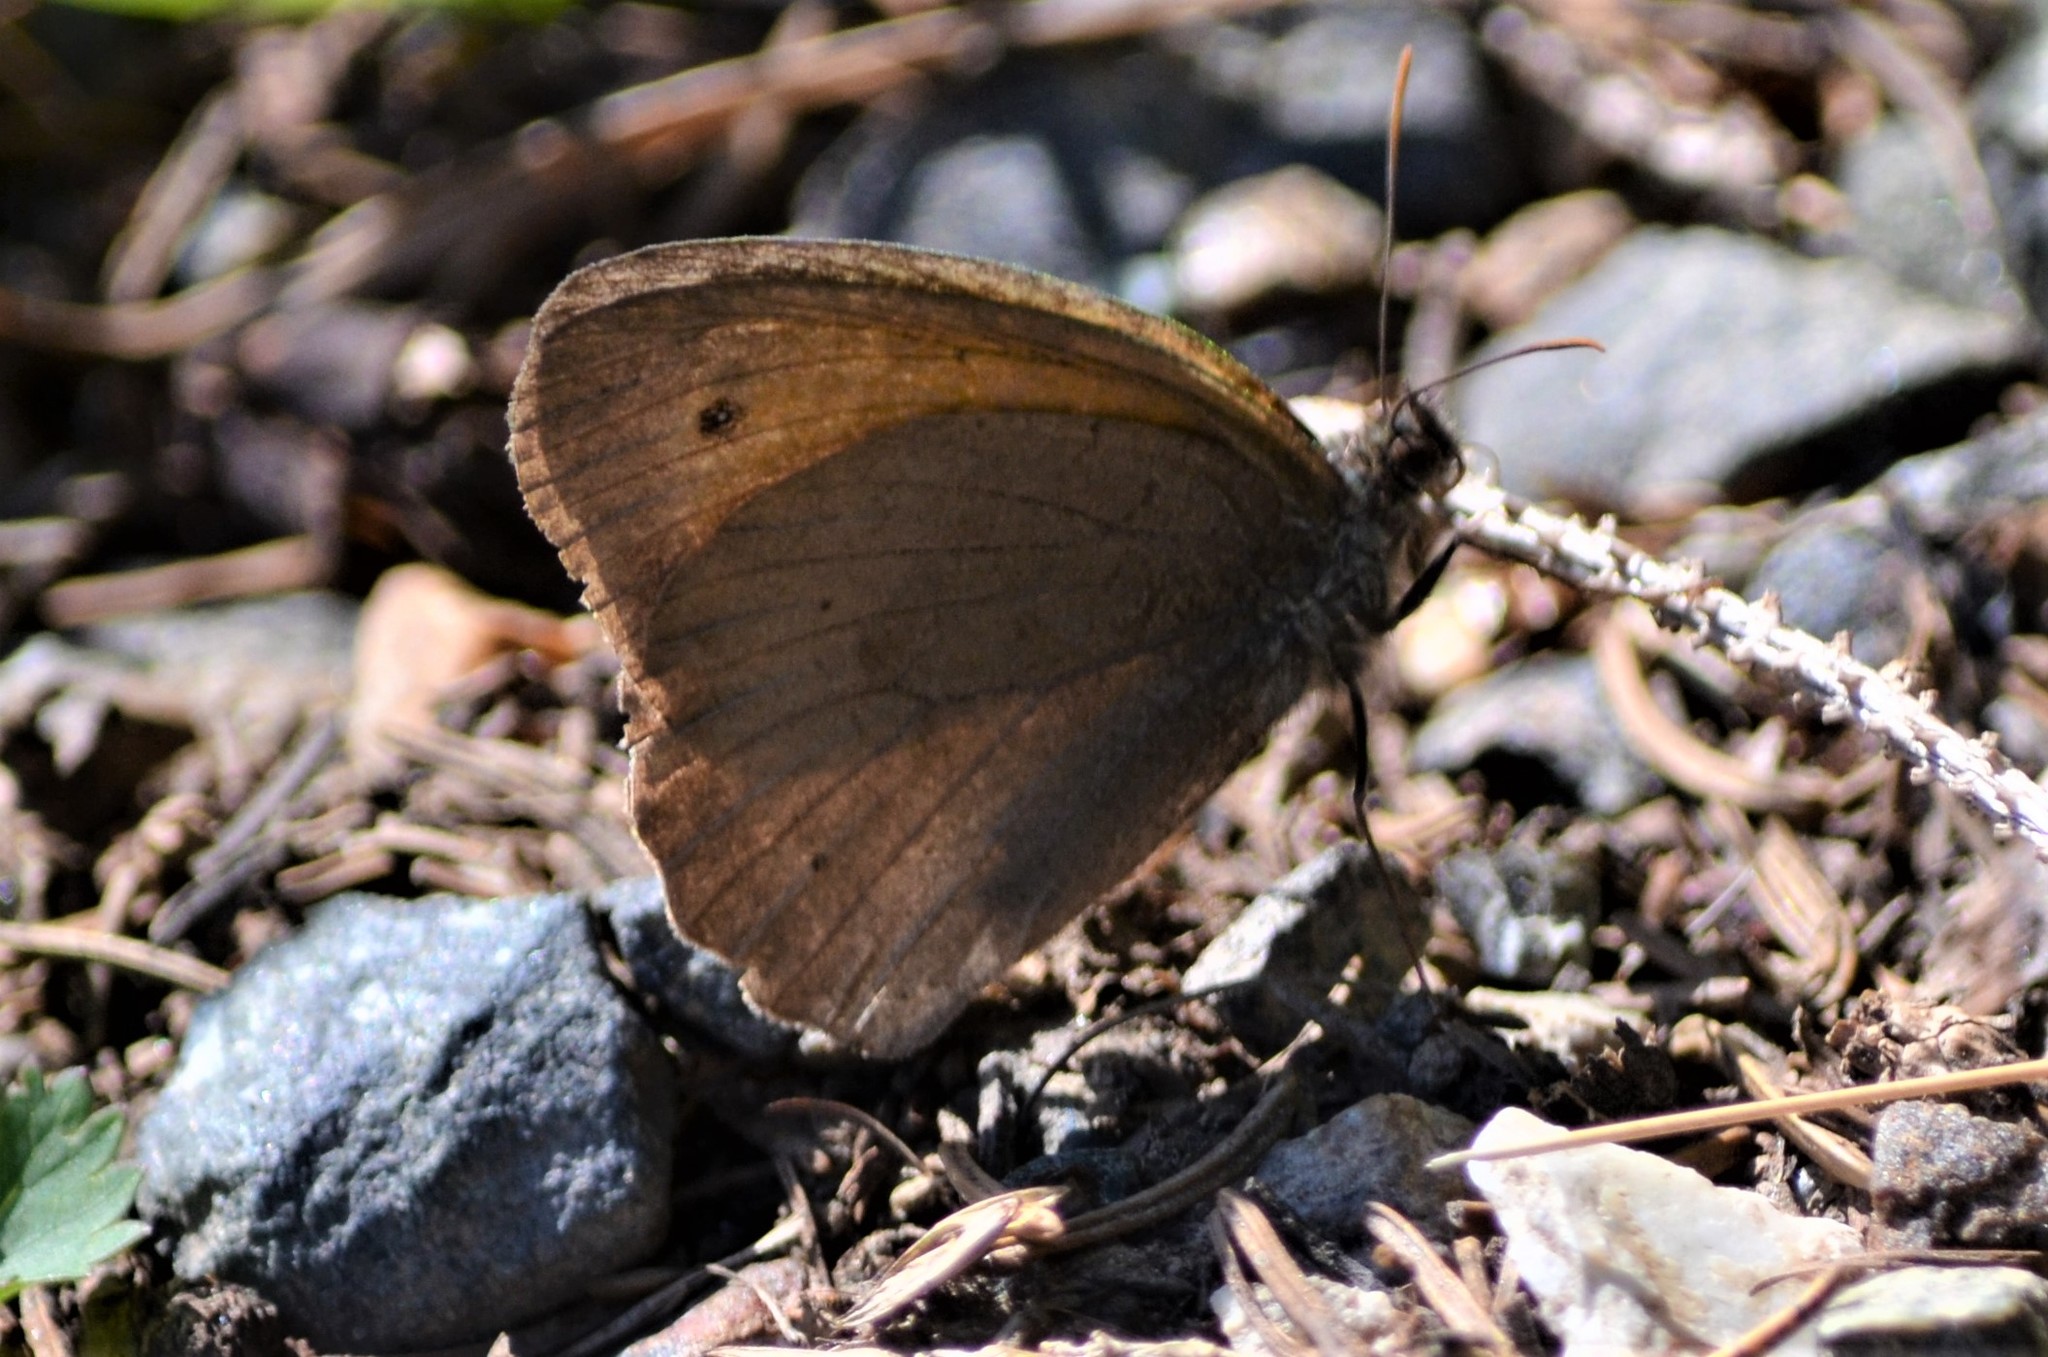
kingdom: Animalia
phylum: Arthropoda
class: Insecta
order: Lepidoptera
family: Nymphalidae
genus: Maniola
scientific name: Maniola jurtina
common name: Meadow brown
